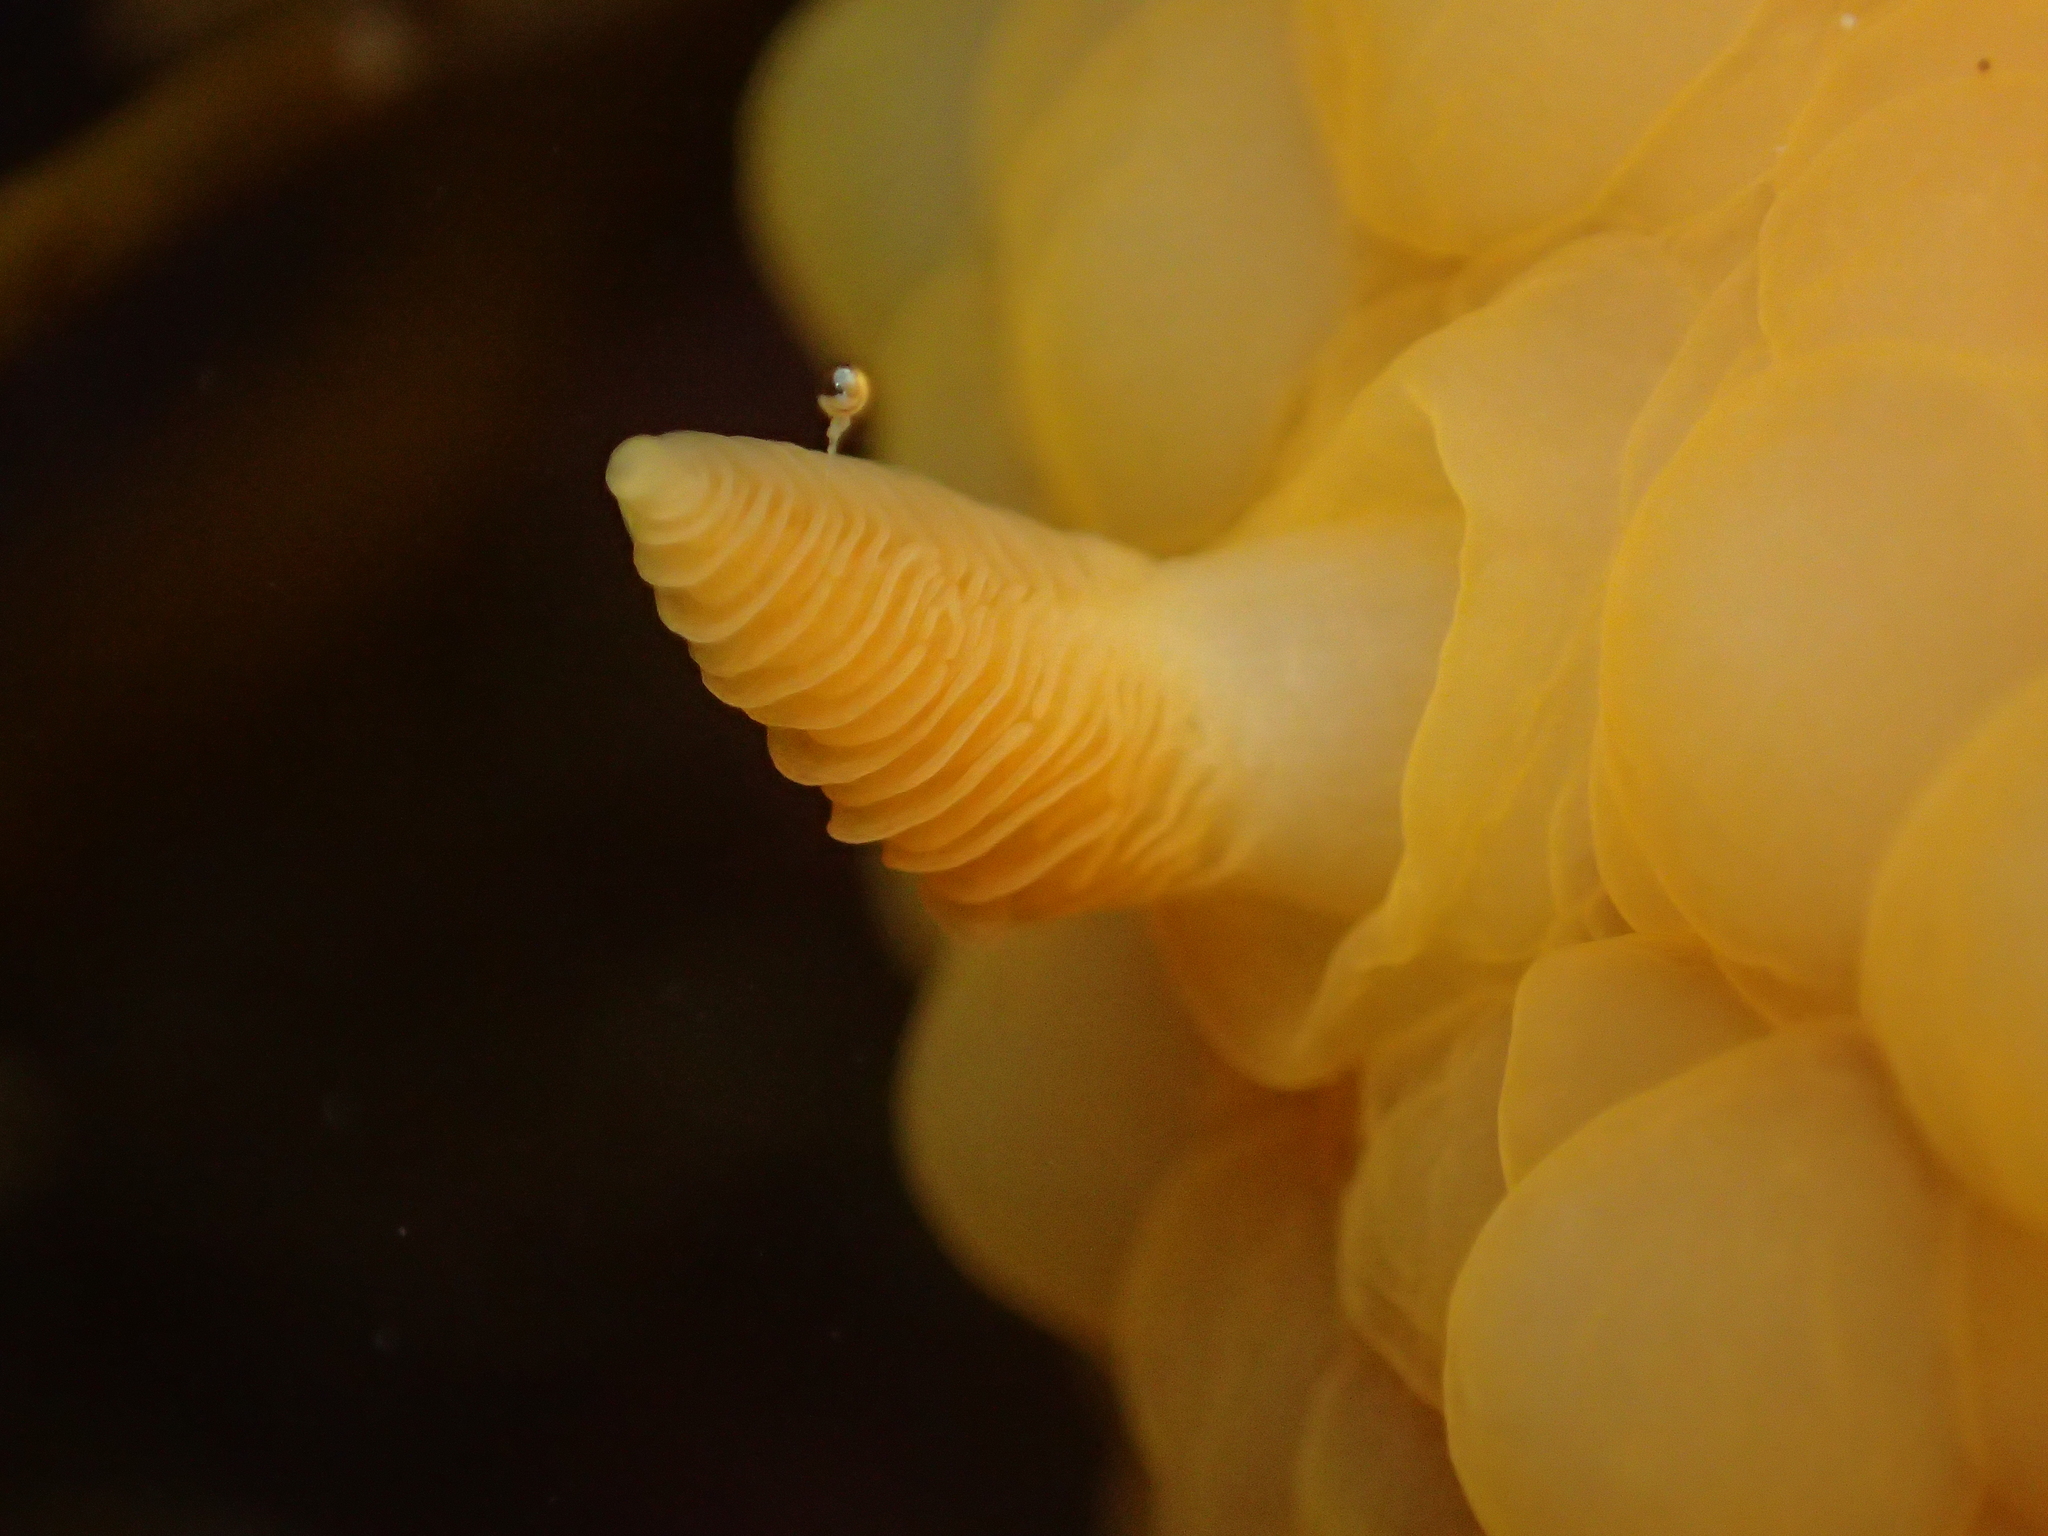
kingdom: Animalia
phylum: Mollusca
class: Gastropoda
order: Nudibranchia
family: Dorididae
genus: Doris
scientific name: Doris wellingtonensis
